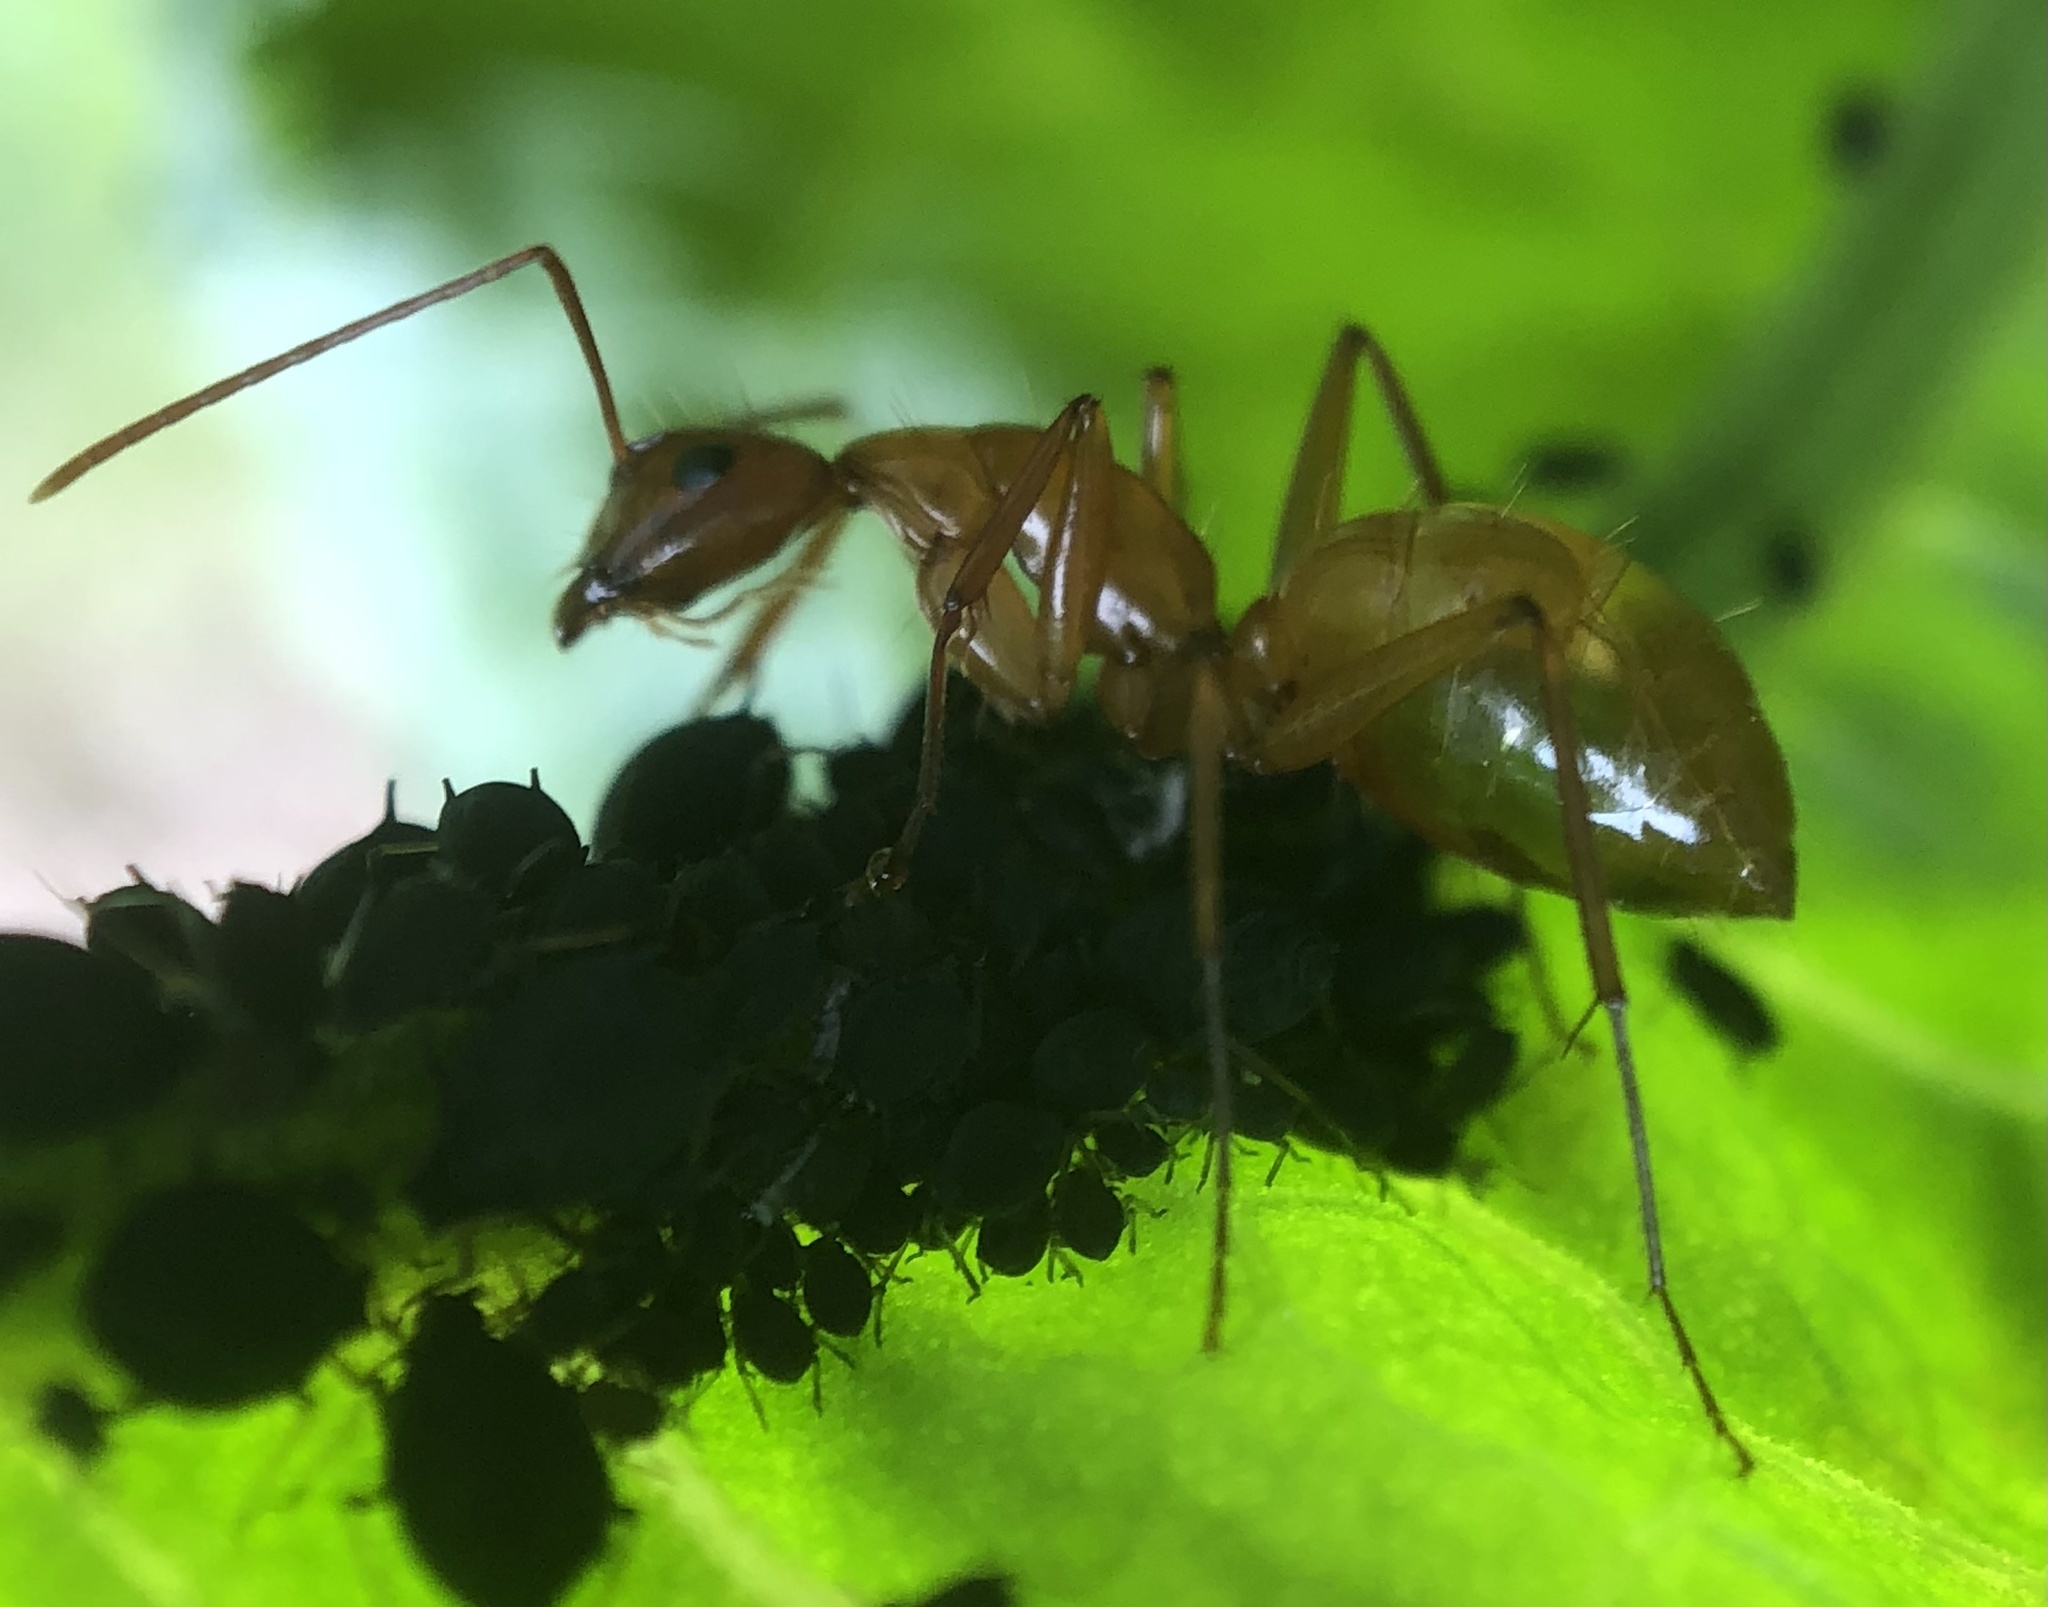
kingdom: Animalia
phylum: Arthropoda
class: Insecta
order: Hymenoptera
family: Formicidae
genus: Camponotus
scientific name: Camponotus castaneus
